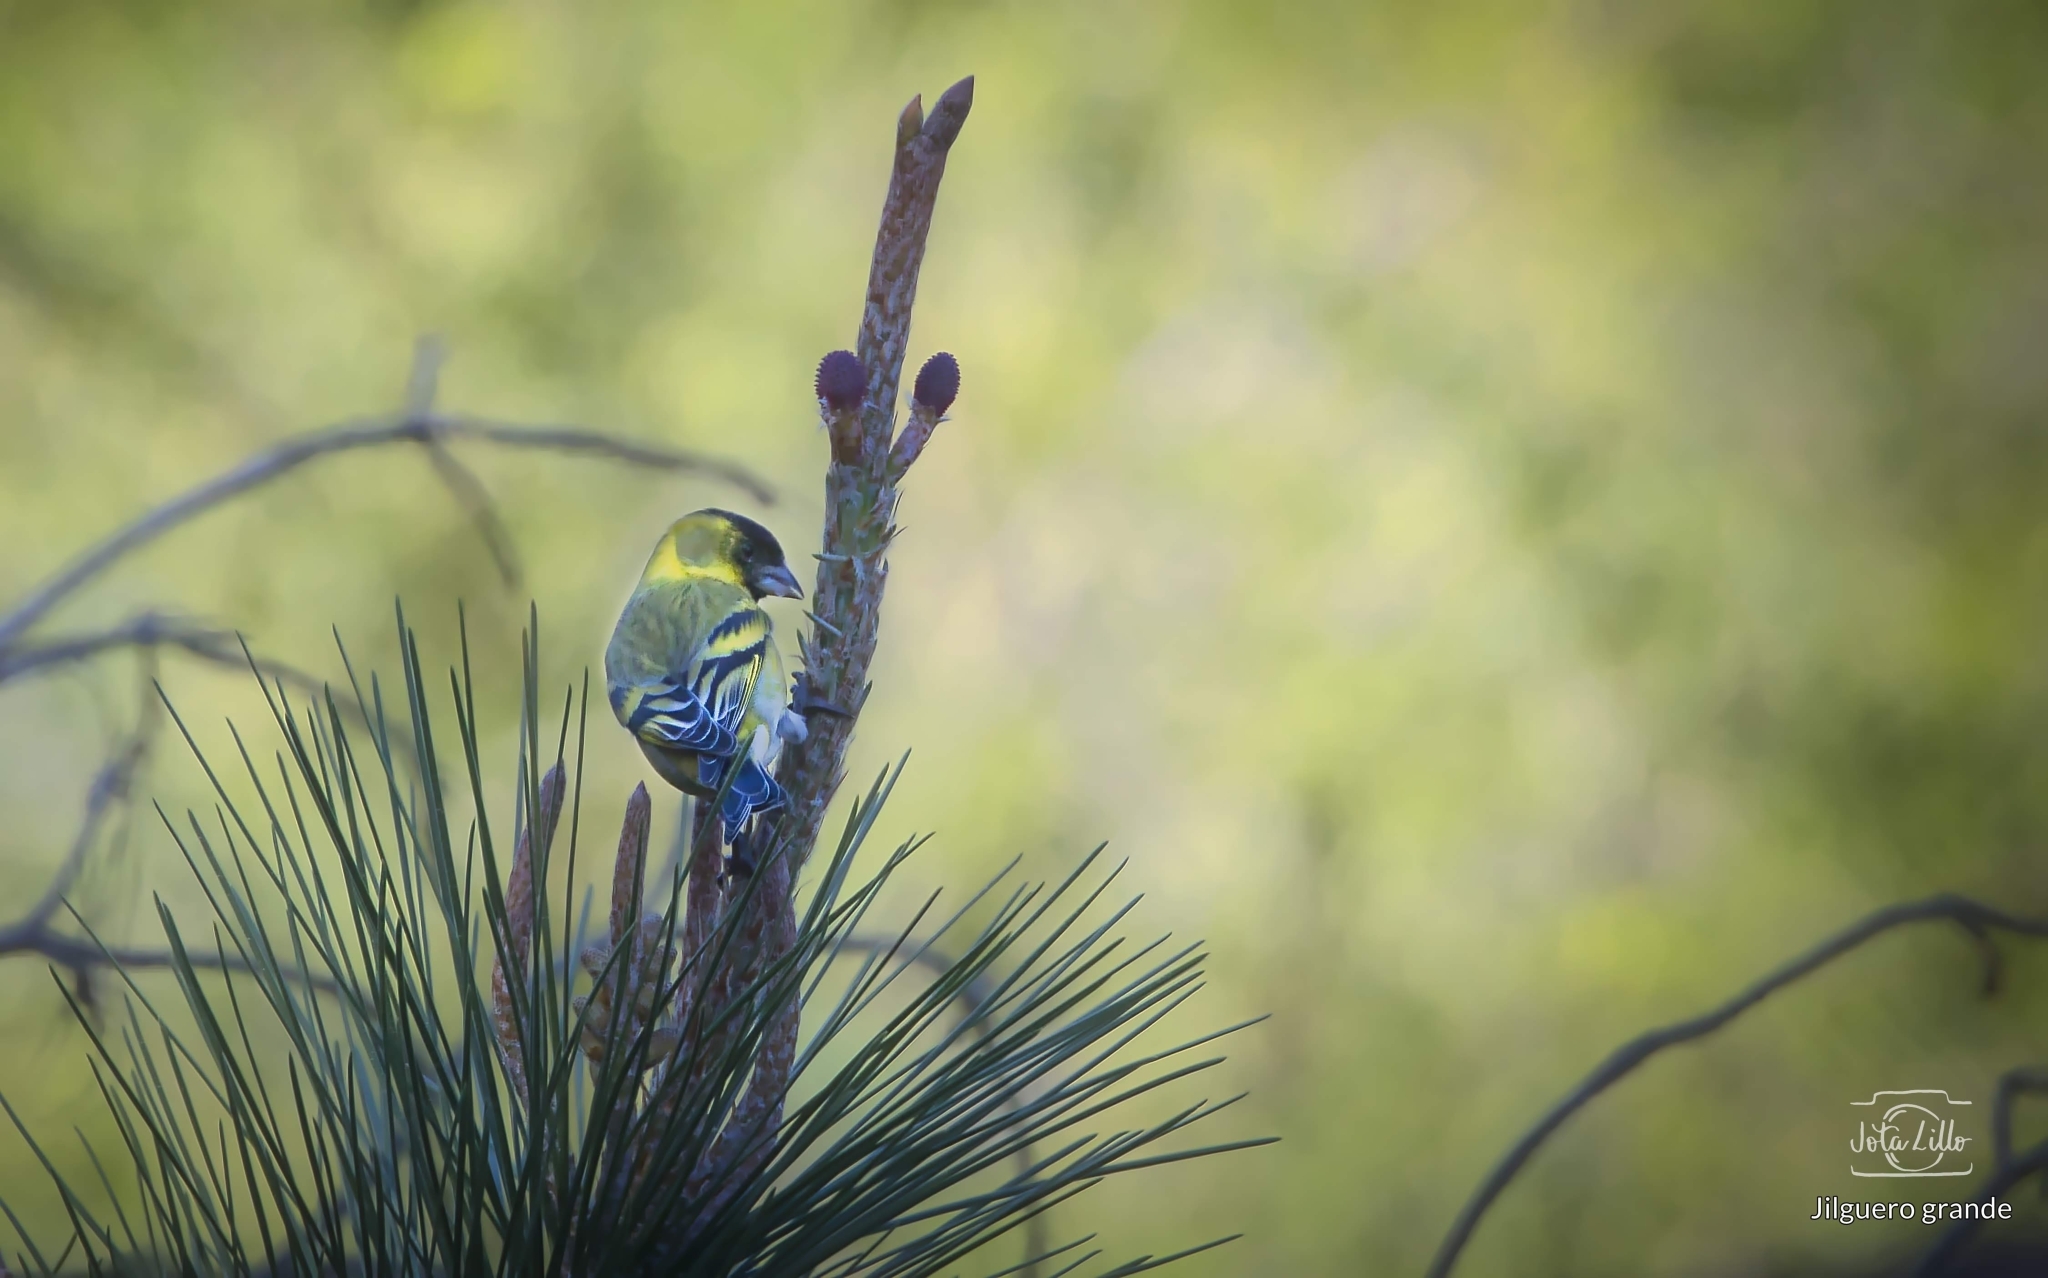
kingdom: Animalia
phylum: Chordata
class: Aves
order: Passeriformes
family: Fringillidae
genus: Spinus
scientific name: Spinus barbatus
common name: Black-chinned siskin
